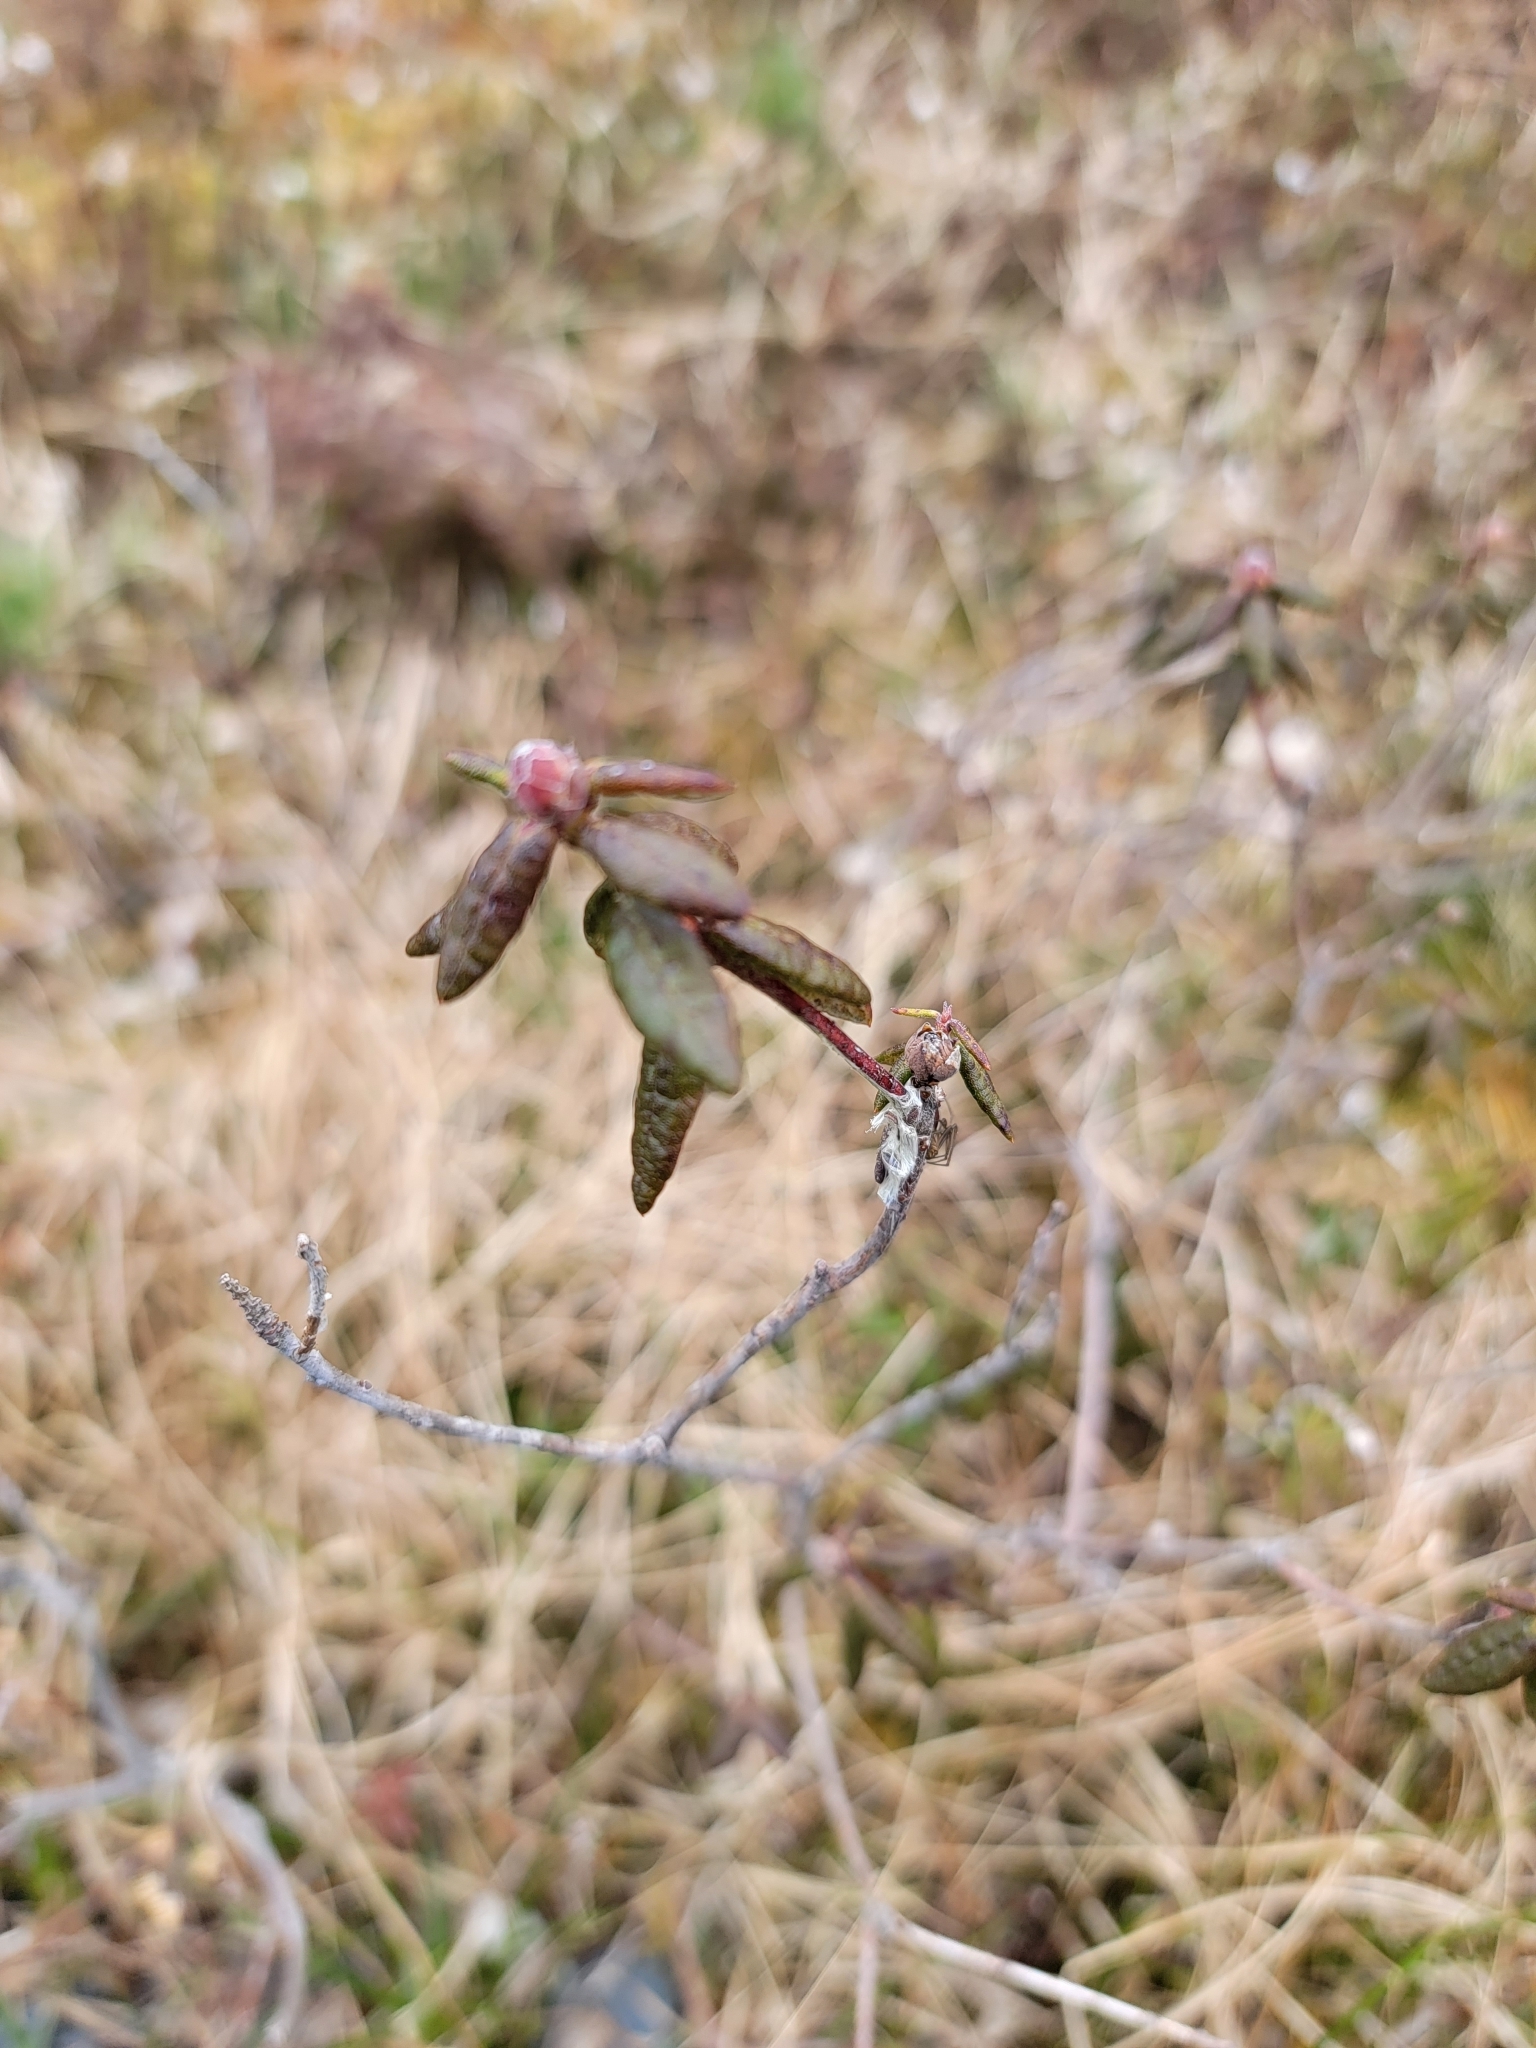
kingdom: Plantae
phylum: Tracheophyta
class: Magnoliopsida
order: Ericales
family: Ericaceae
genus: Rhododendron
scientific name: Rhododendron groenlandicum
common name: Bog labrador tea
